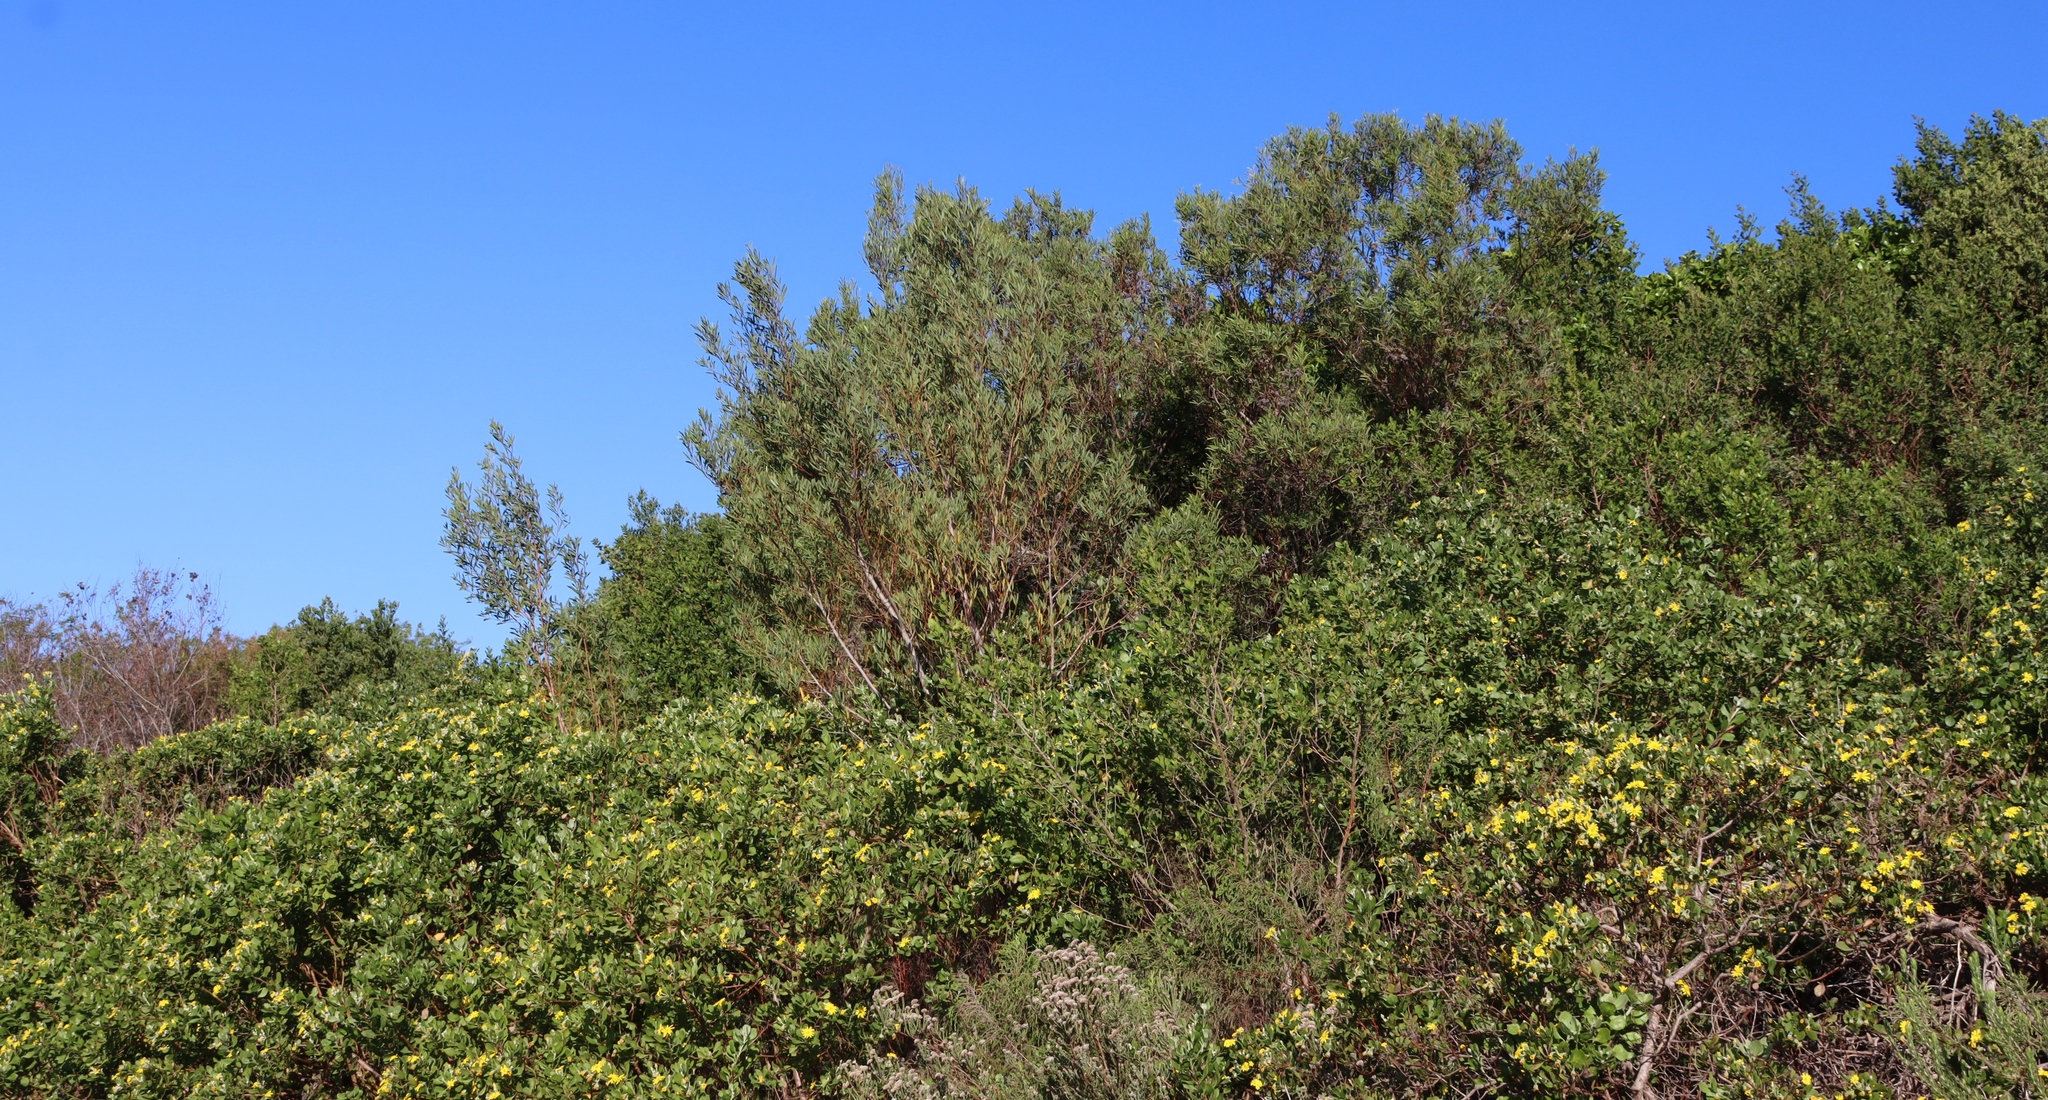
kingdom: Plantae
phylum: Tracheophyta
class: Magnoliopsida
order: Fabales
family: Fabaceae
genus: Acacia
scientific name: Acacia cyclops
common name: Coastal wattle
